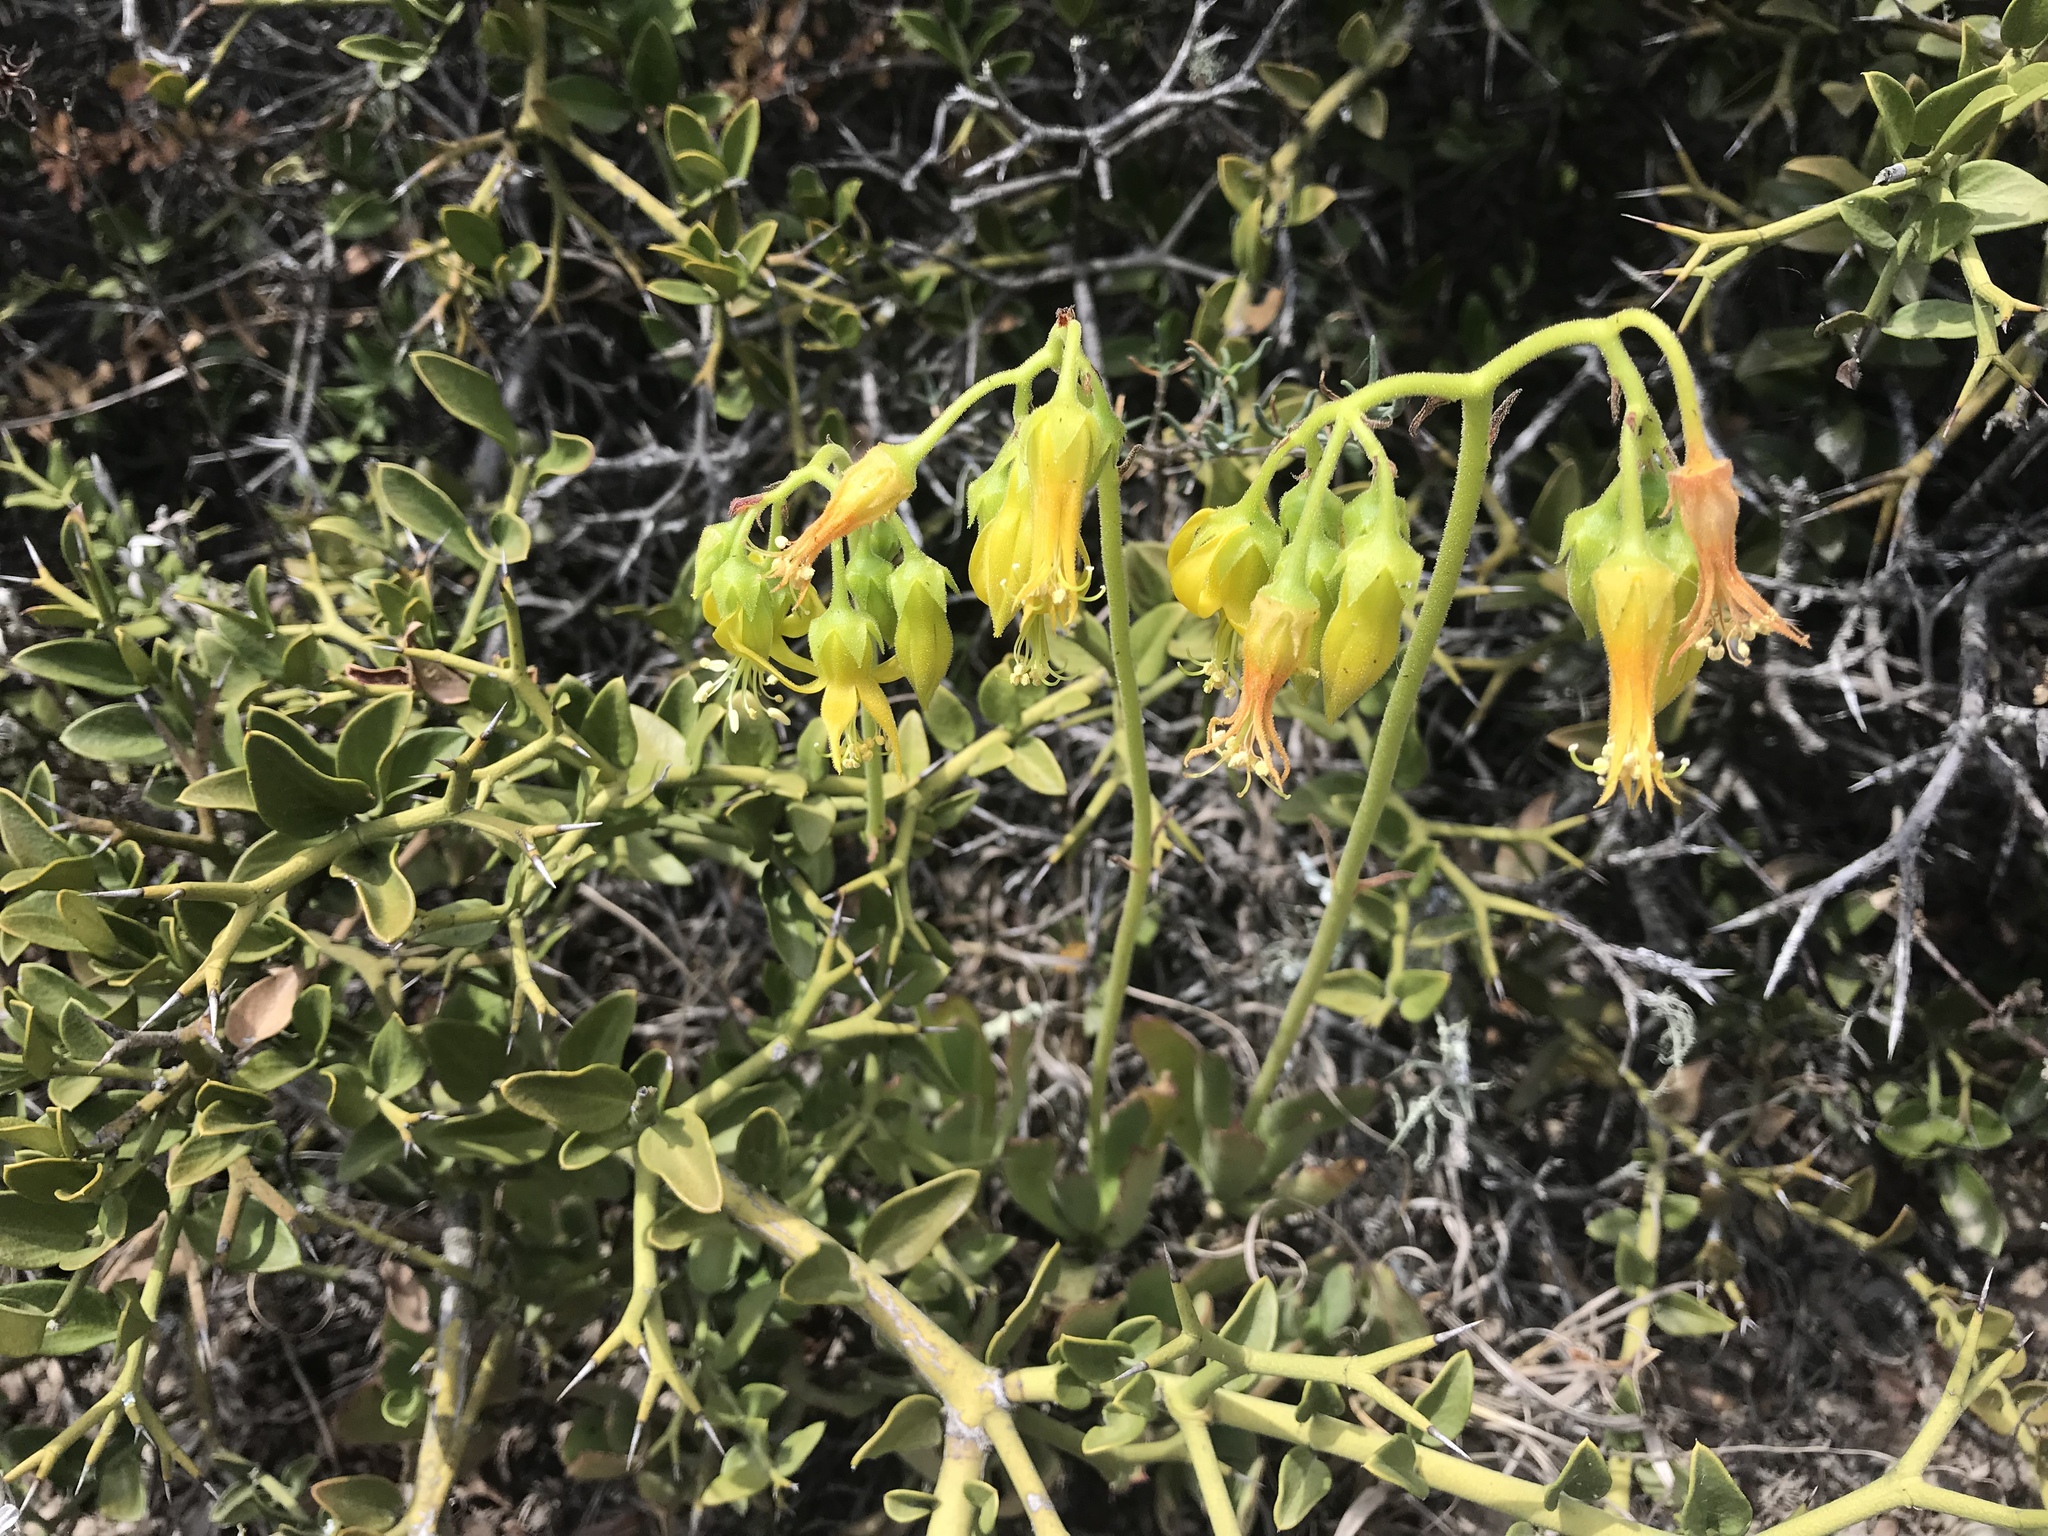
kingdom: Plantae
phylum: Tracheophyta
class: Magnoliopsida
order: Saxifragales
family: Crassulaceae
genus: Cotyledon
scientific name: Cotyledon campanulata
